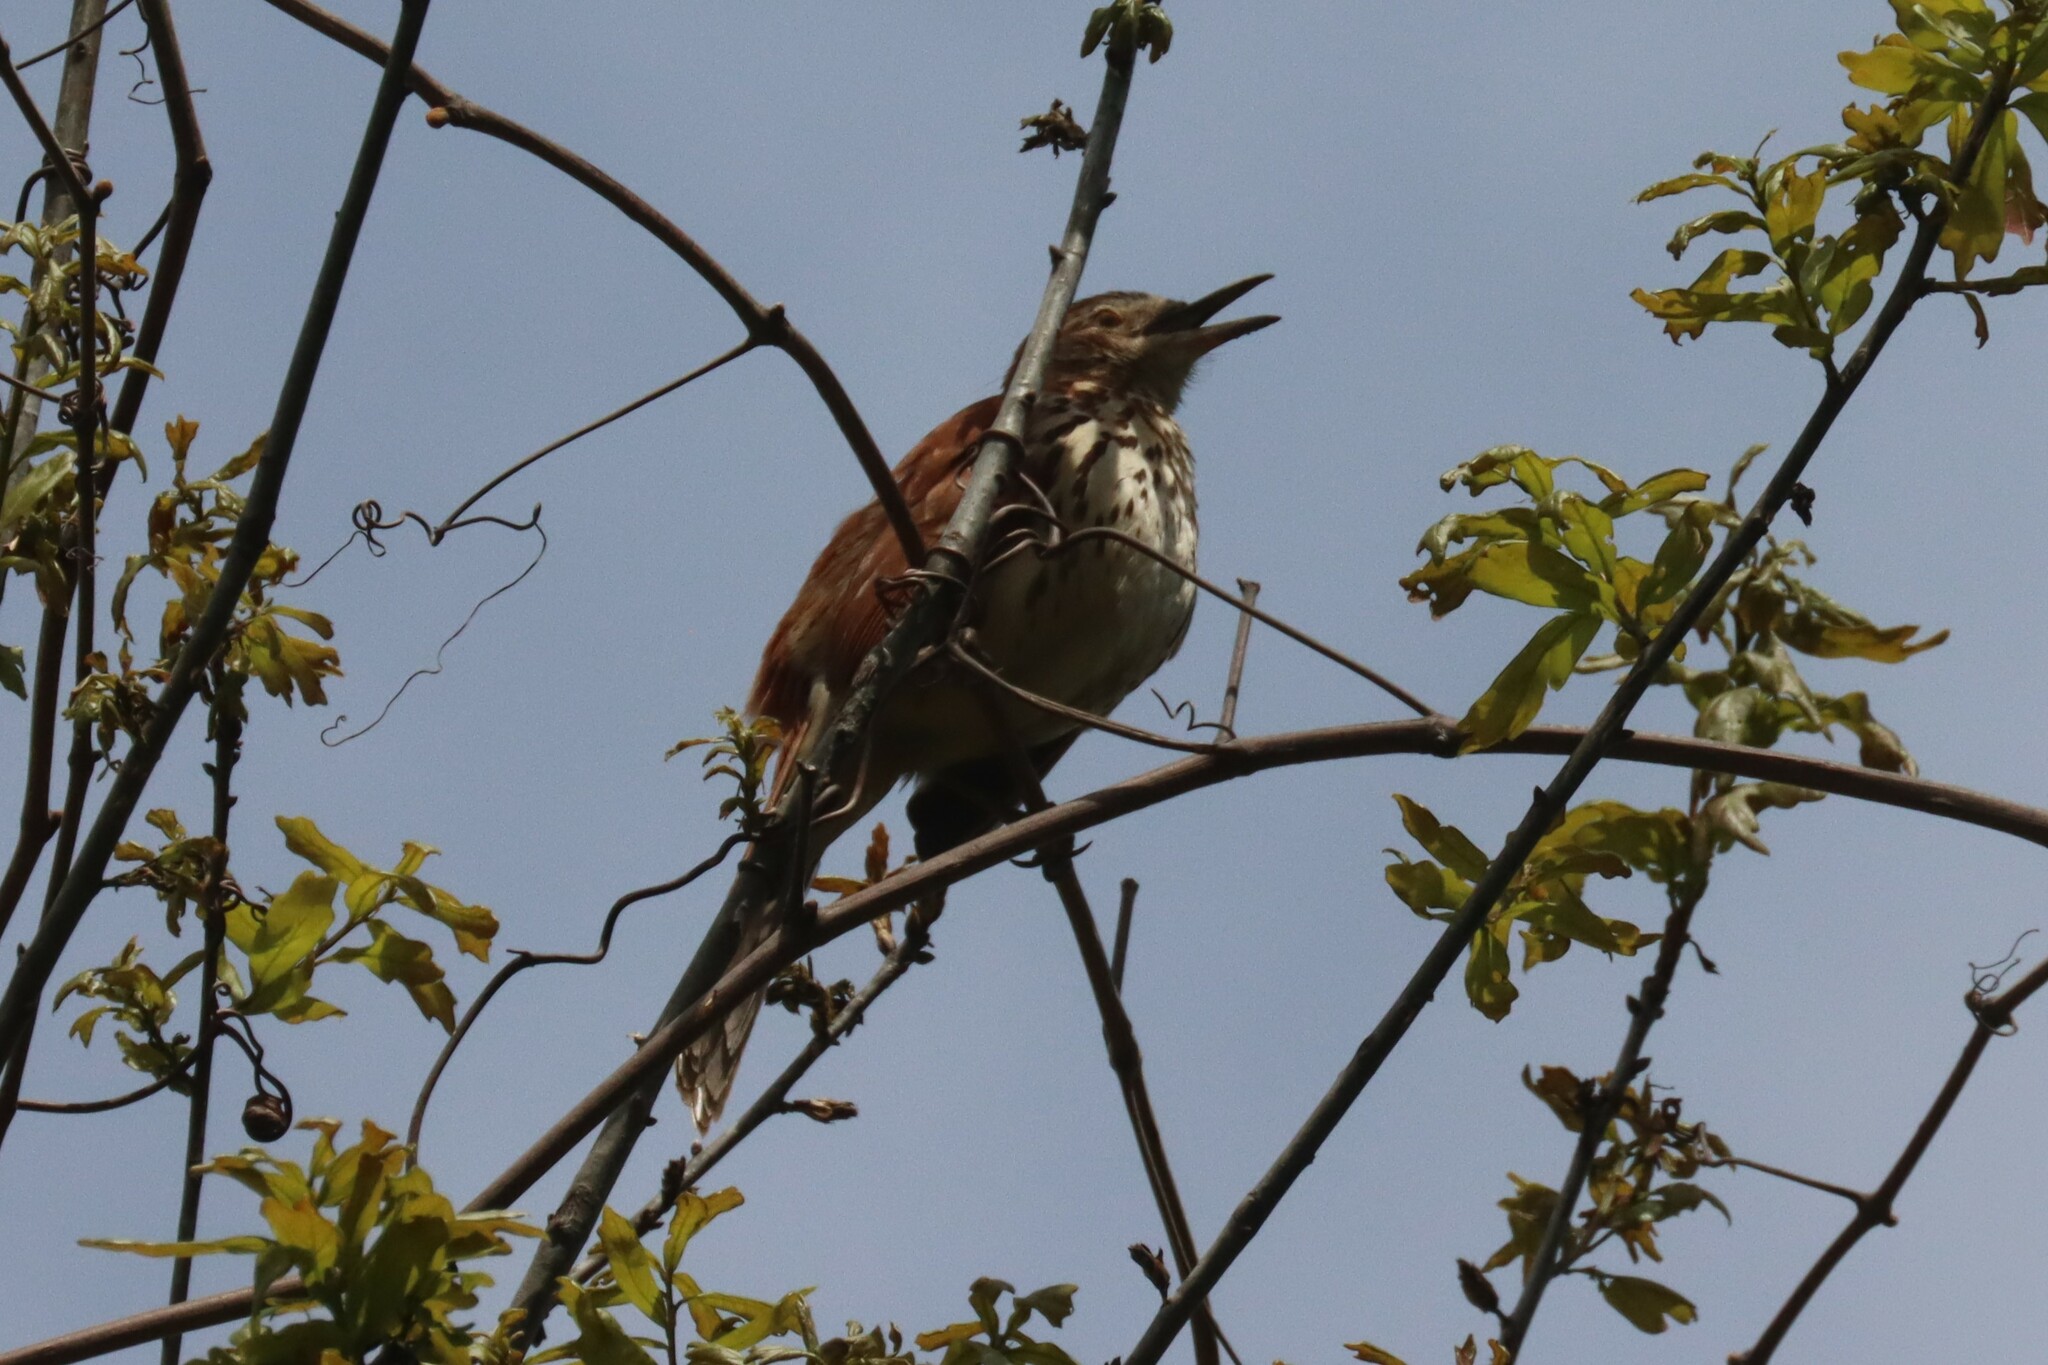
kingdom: Animalia
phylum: Chordata
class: Aves
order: Passeriformes
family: Mimidae
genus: Toxostoma
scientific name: Toxostoma rufum
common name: Brown thrasher
